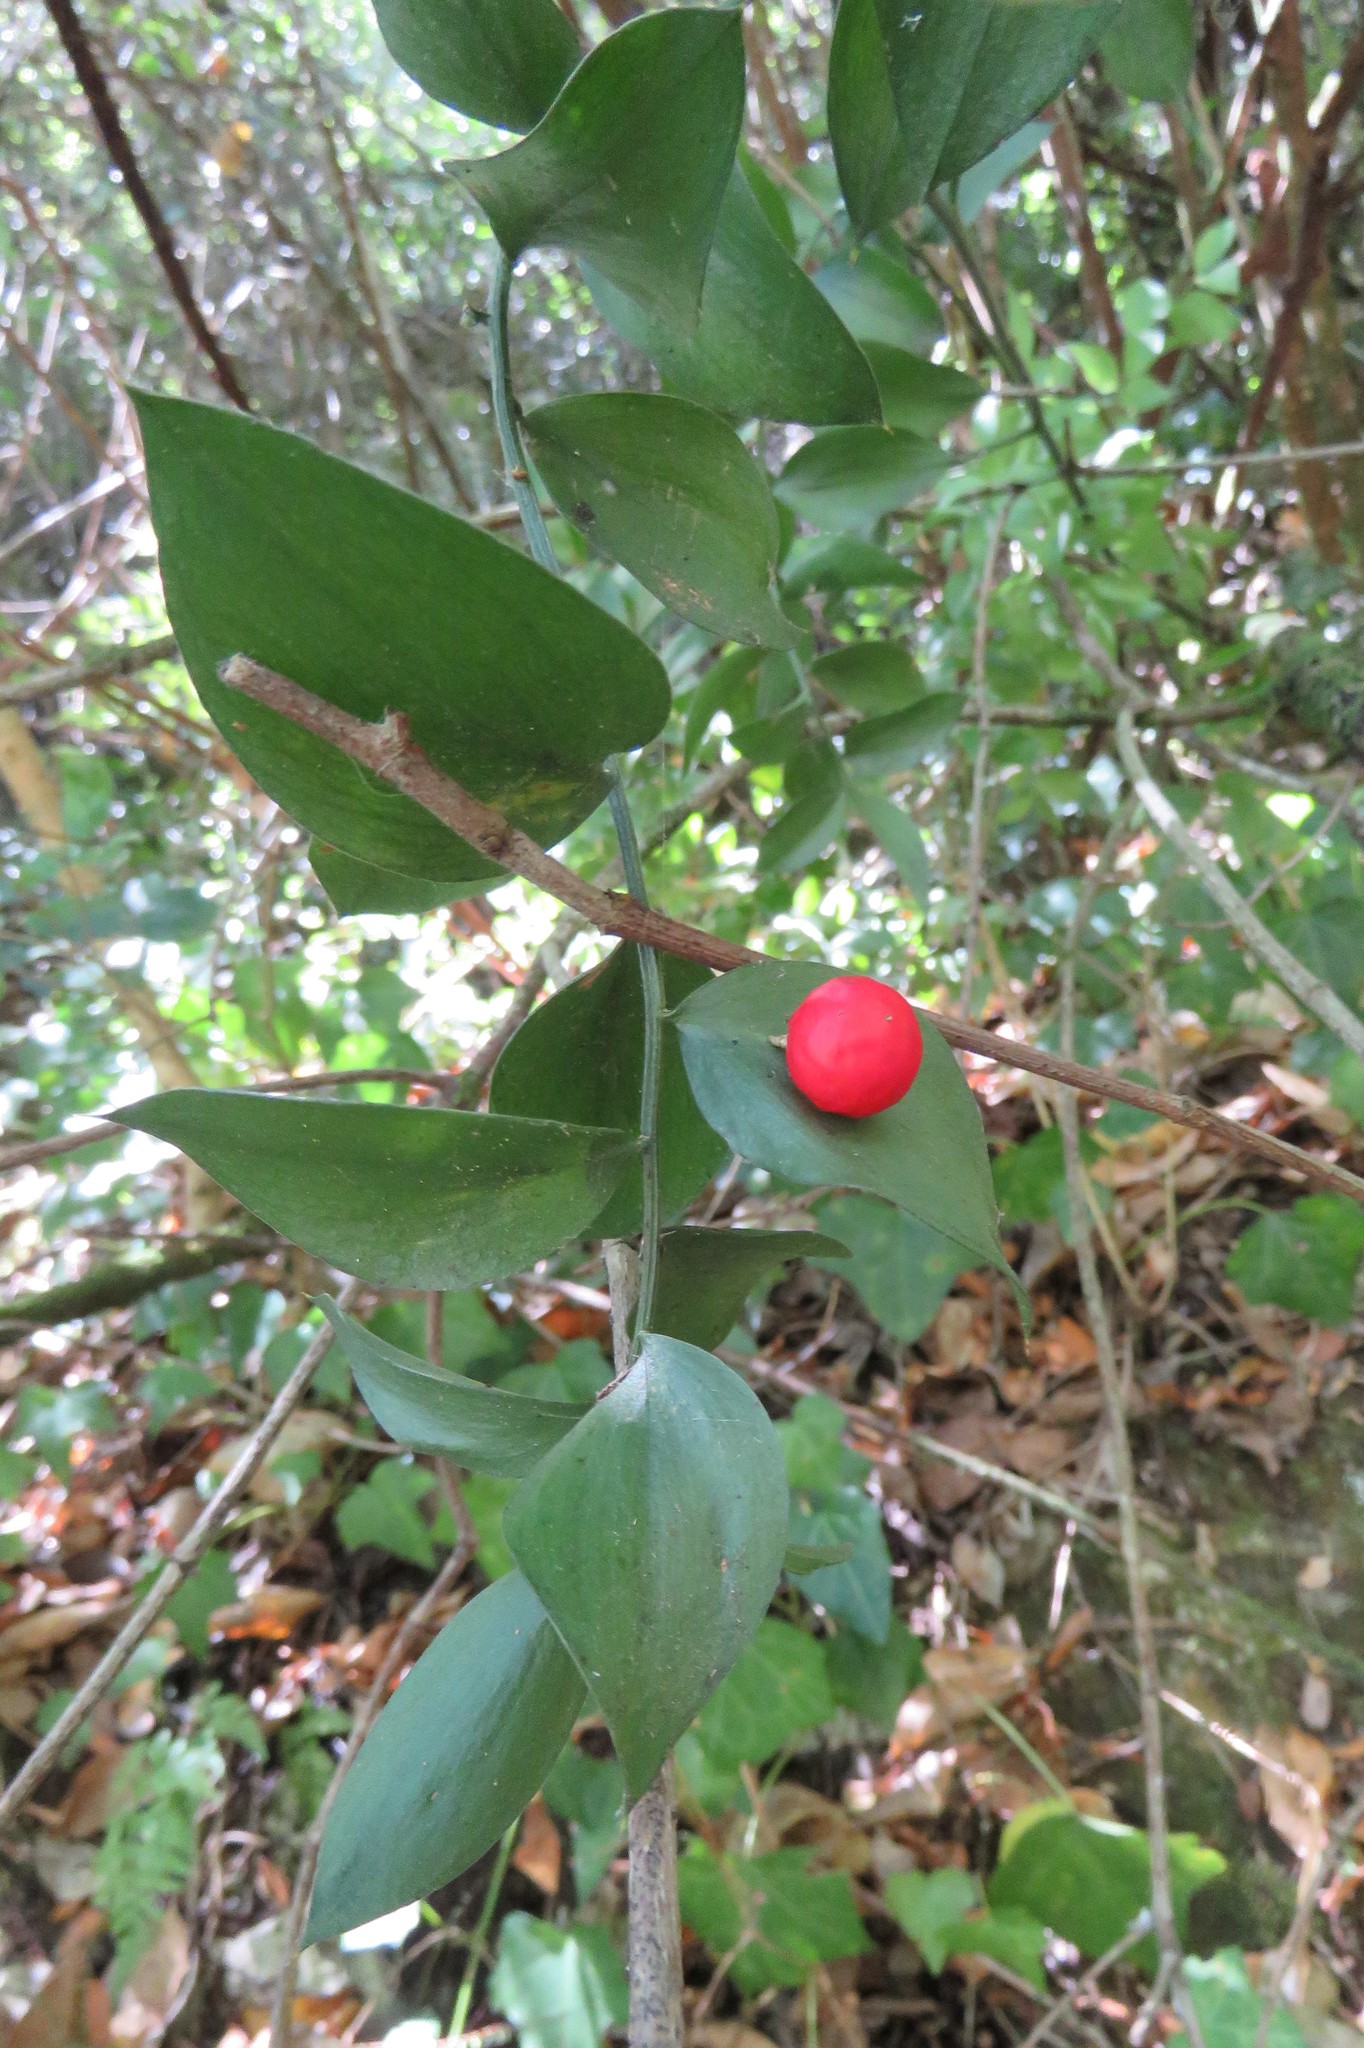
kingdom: Plantae
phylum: Tracheophyta
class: Liliopsida
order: Asparagales
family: Asparagaceae
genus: Ruscus
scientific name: Ruscus aculeatus
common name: Butcher's-broom
